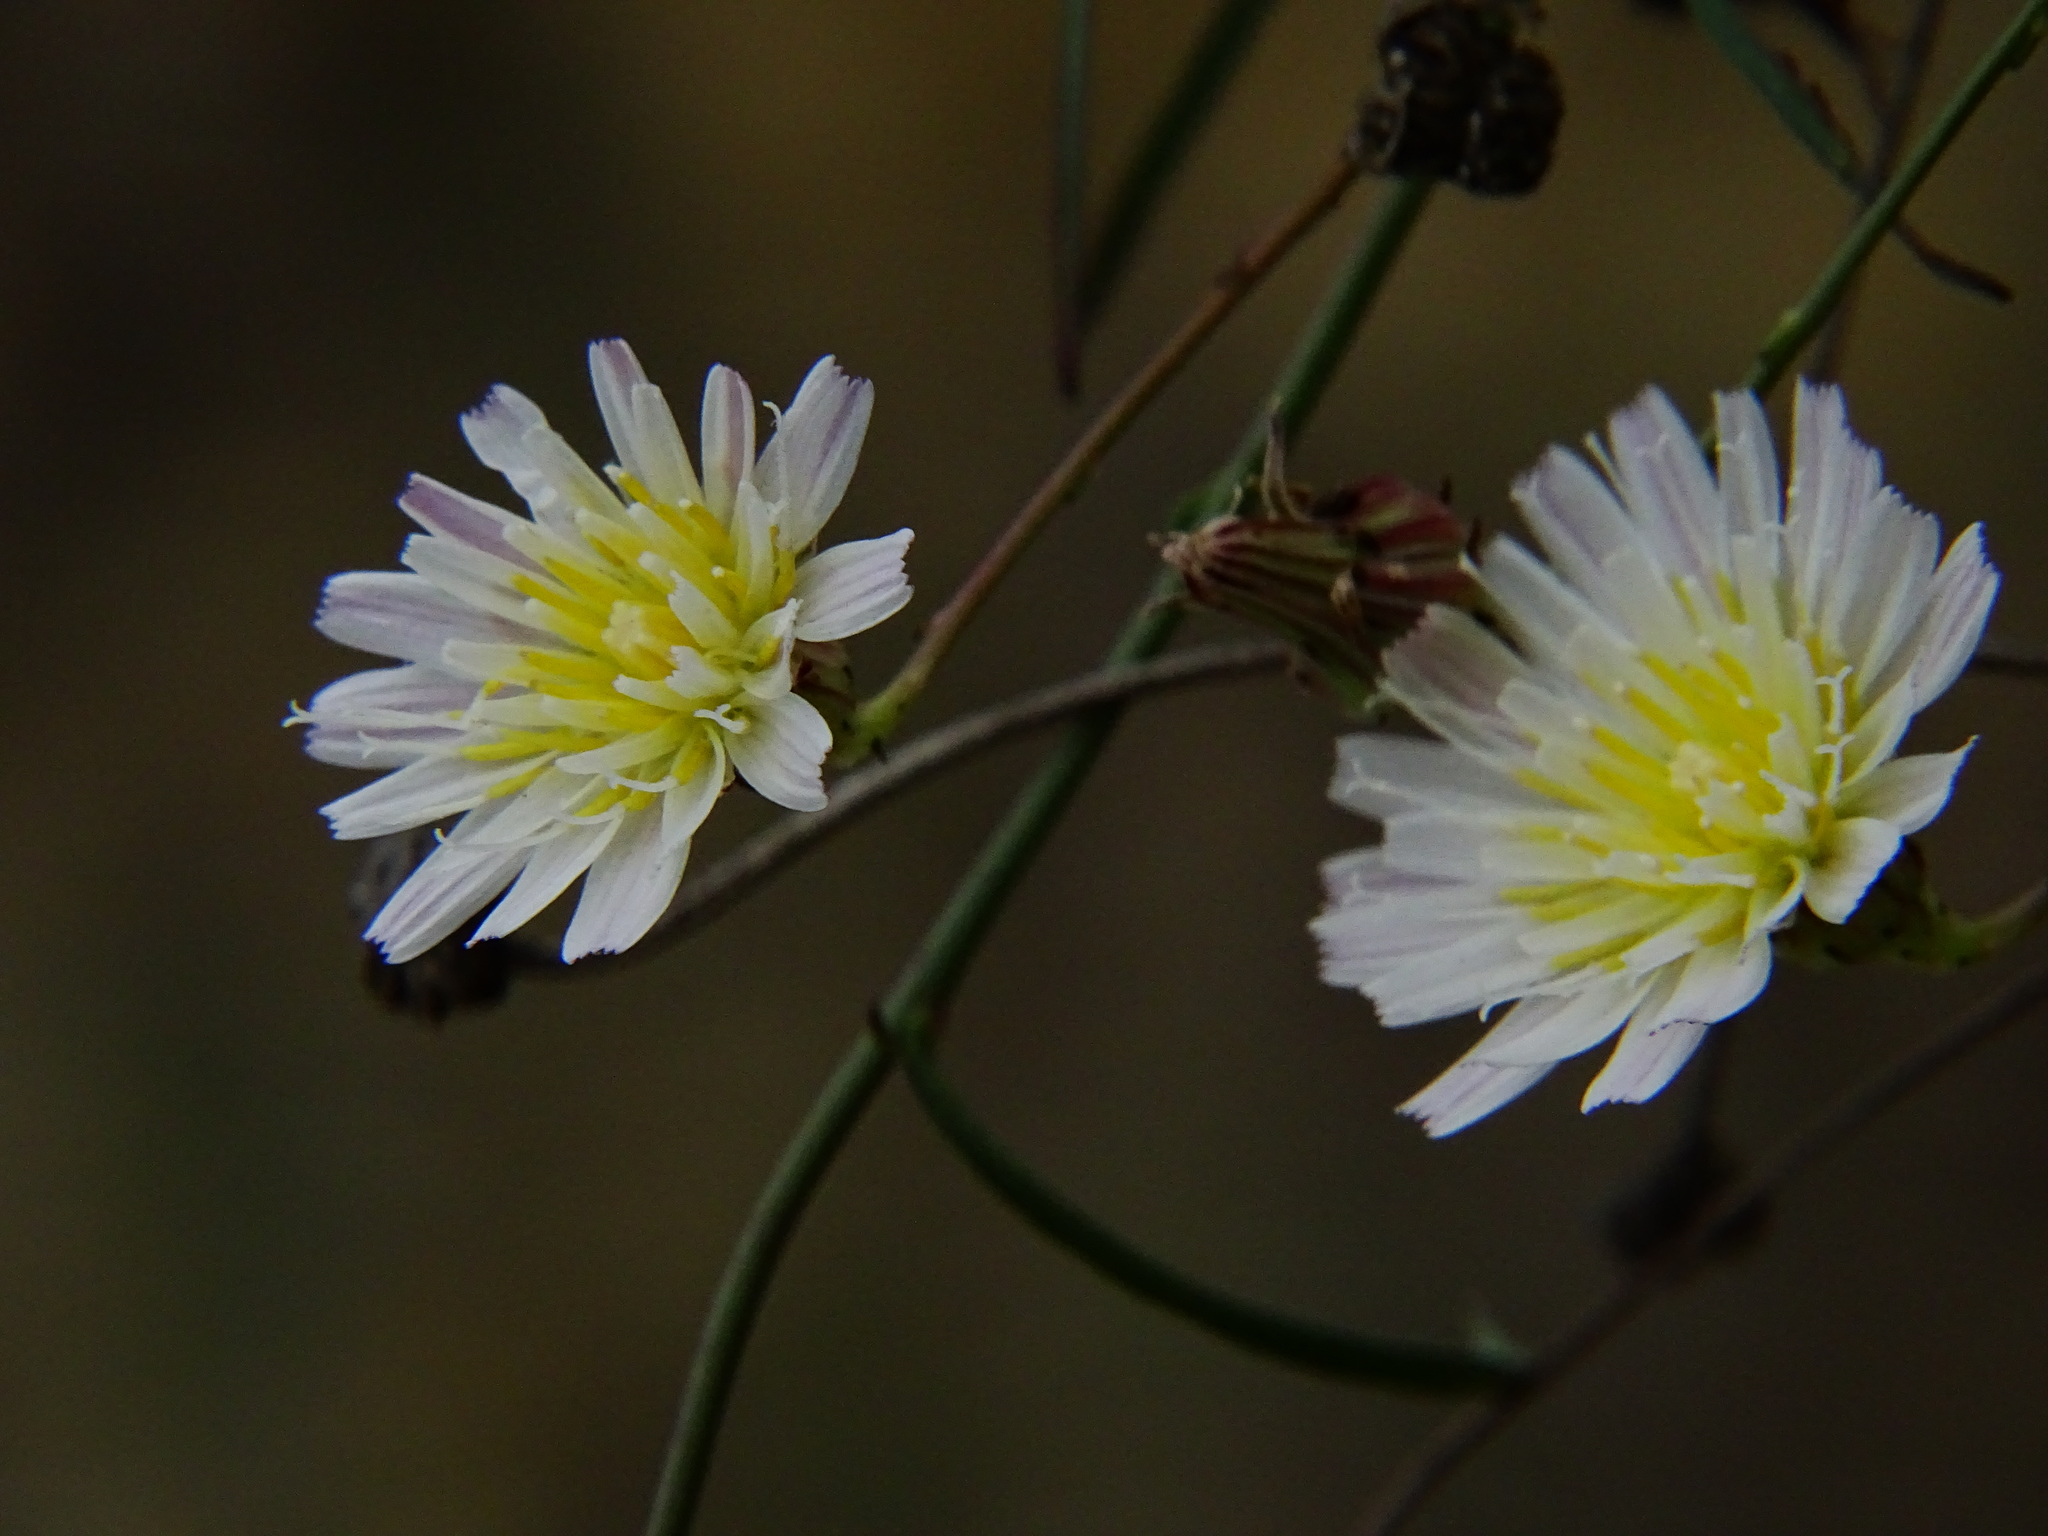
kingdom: Plantae
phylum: Tracheophyta
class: Magnoliopsida
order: Asterales
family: Asteraceae
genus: Malacothrix
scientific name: Malacothrix saxatilis
